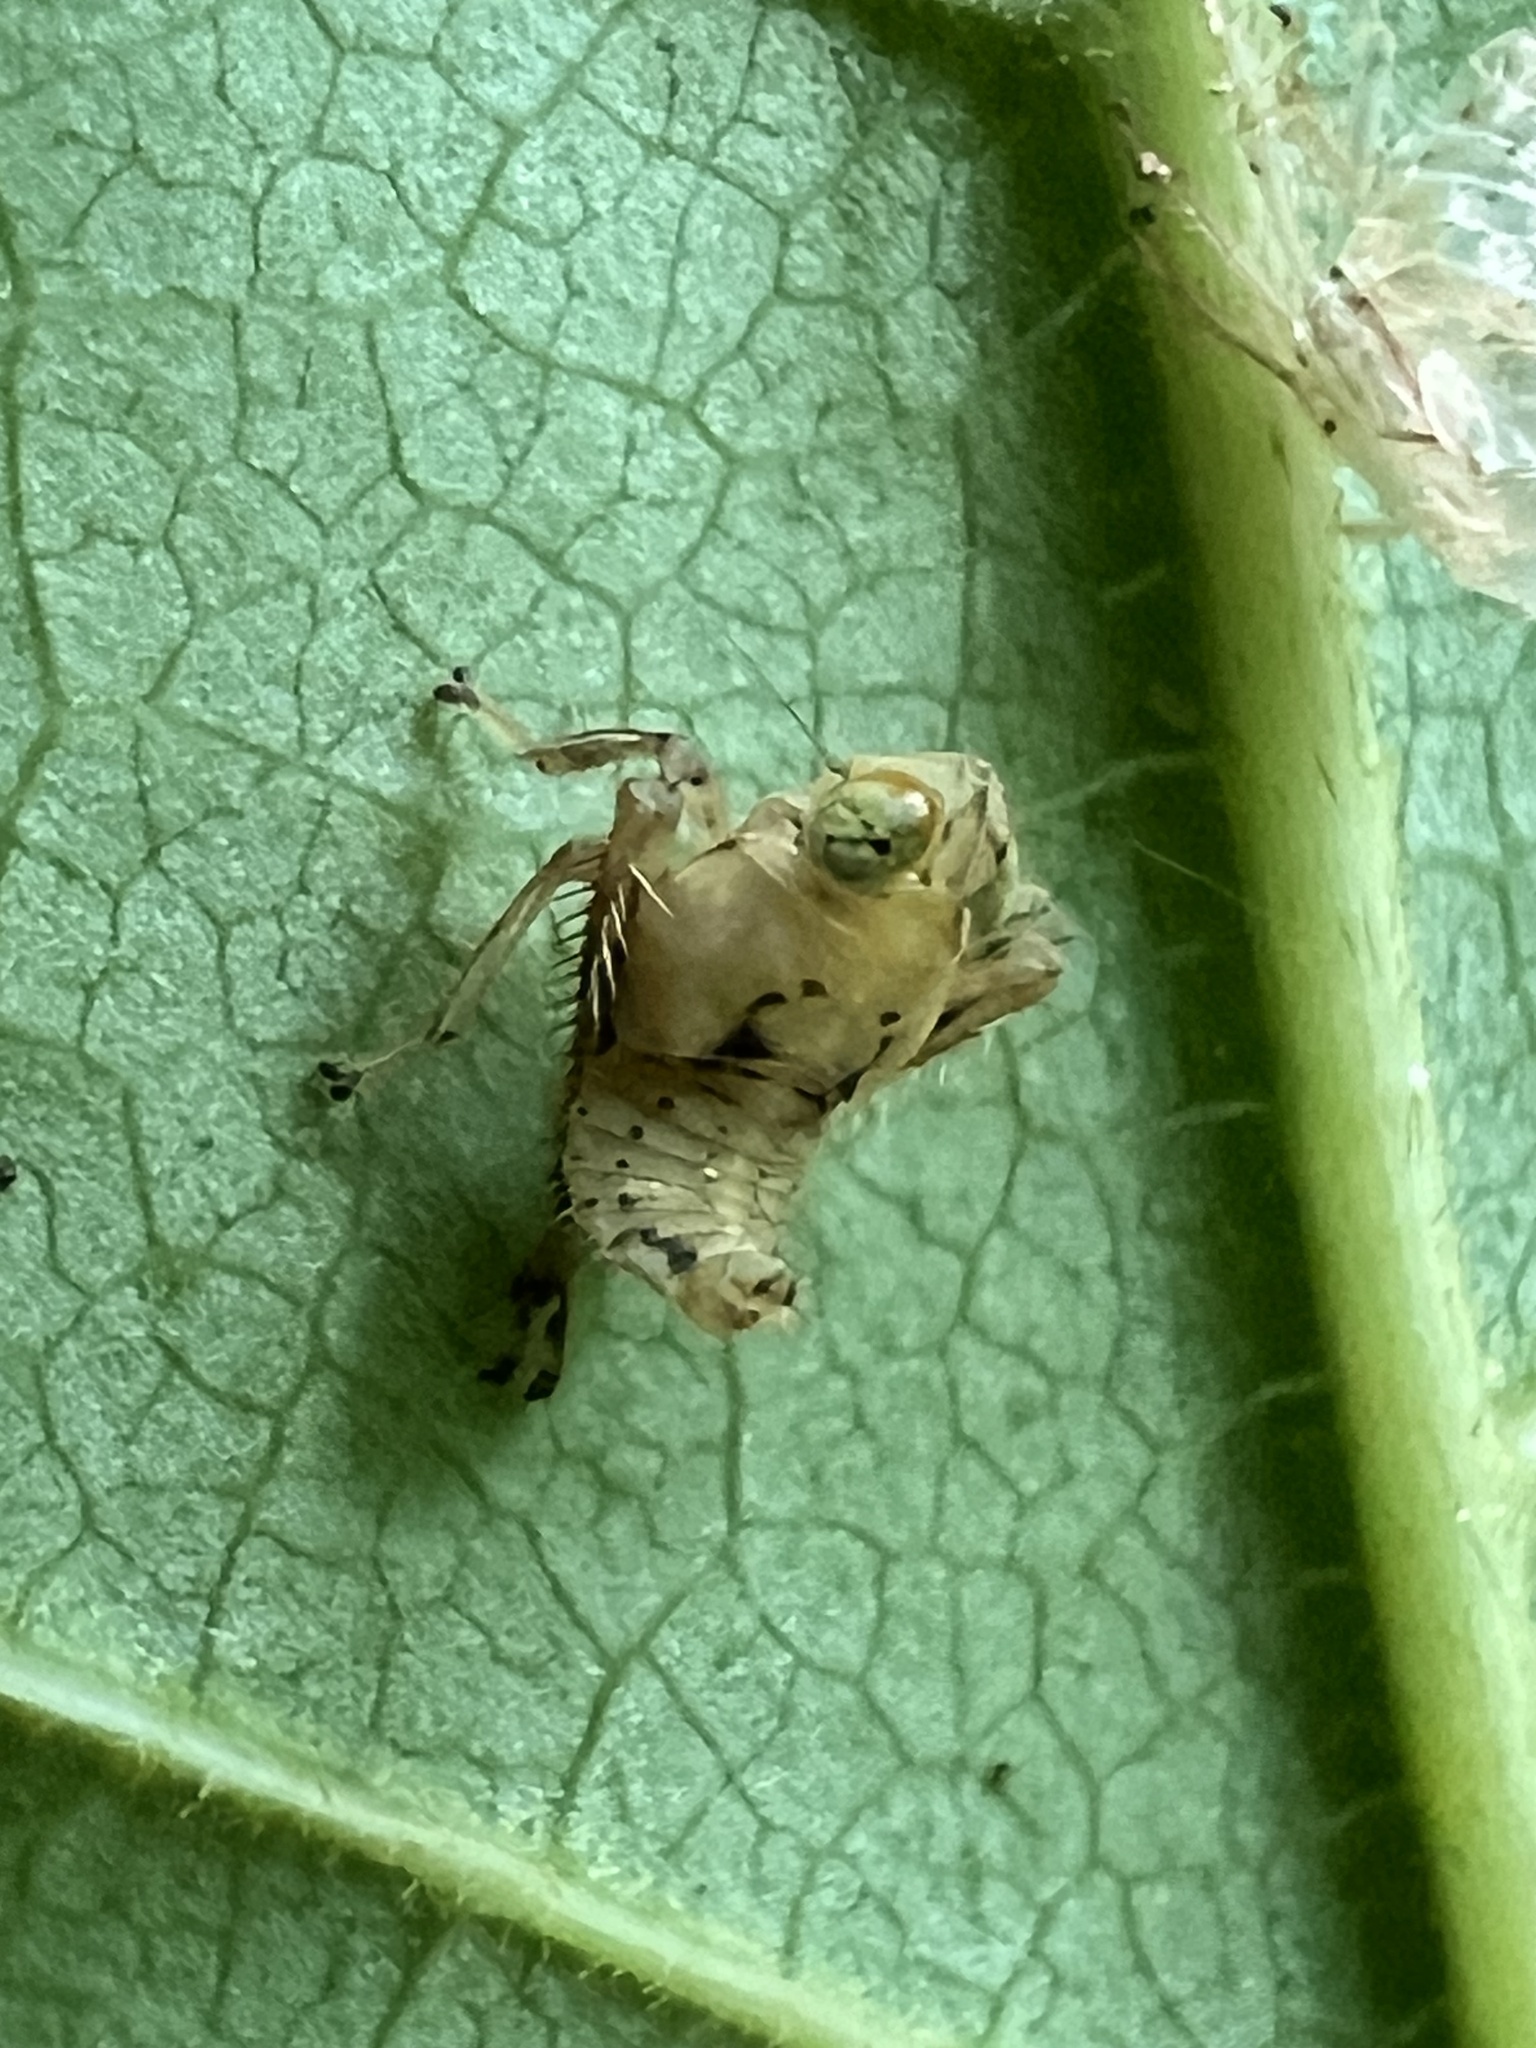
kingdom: Animalia
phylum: Arthropoda
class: Insecta
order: Hemiptera
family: Cicadellidae
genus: Jikradia
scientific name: Jikradia olitoria
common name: Coppery leafhopper
